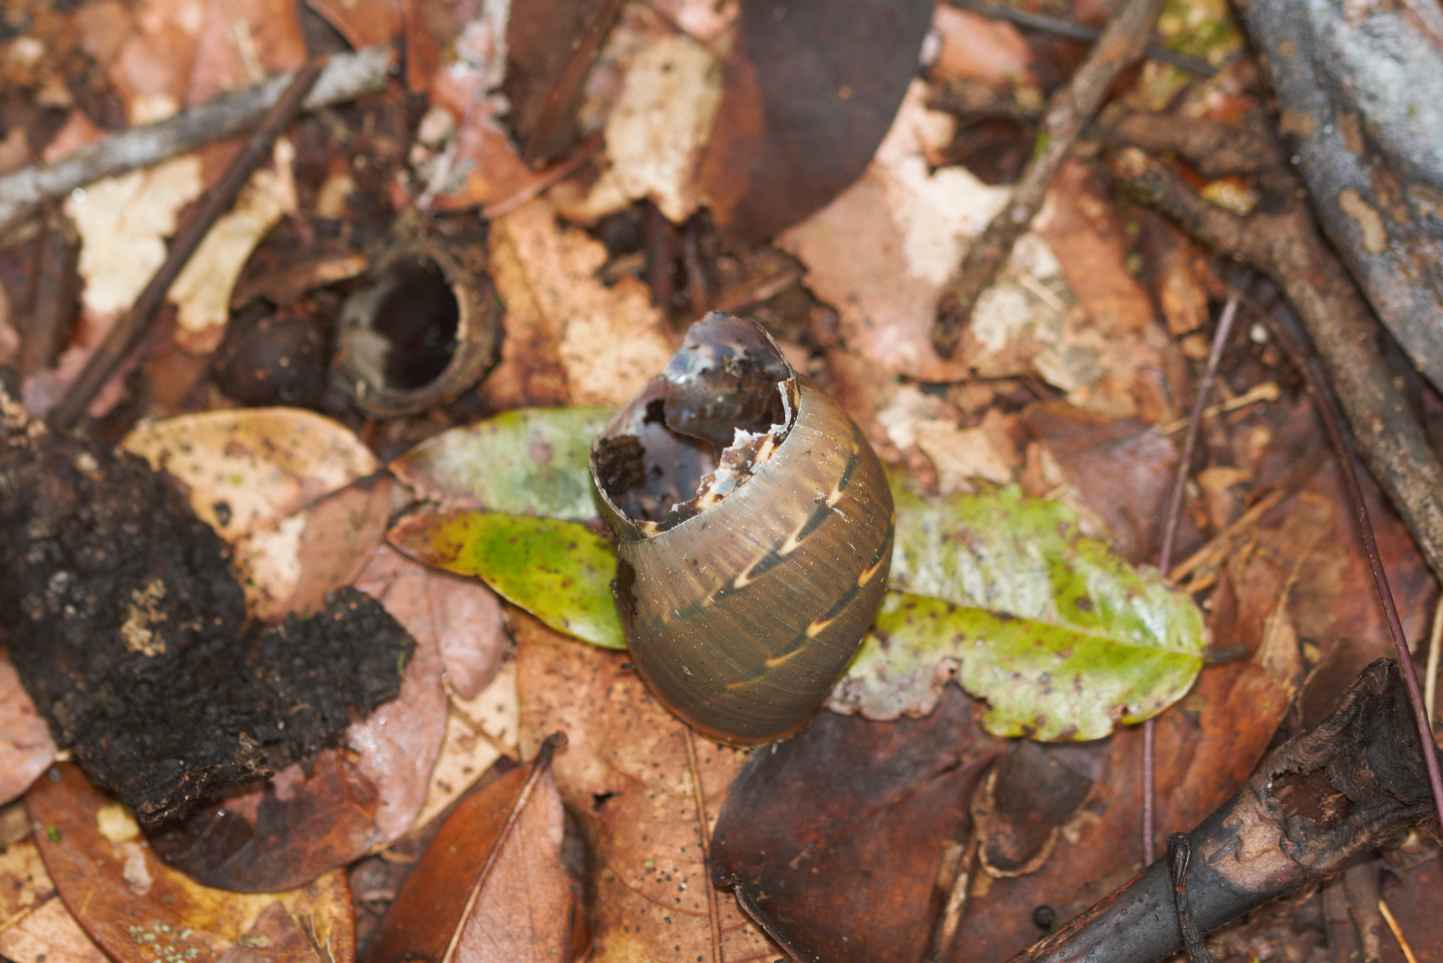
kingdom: Animalia
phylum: Mollusca
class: Gastropoda
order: Stylommatophora
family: Orthalicidae
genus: Orthalicus
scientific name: Orthalicus bensoni
